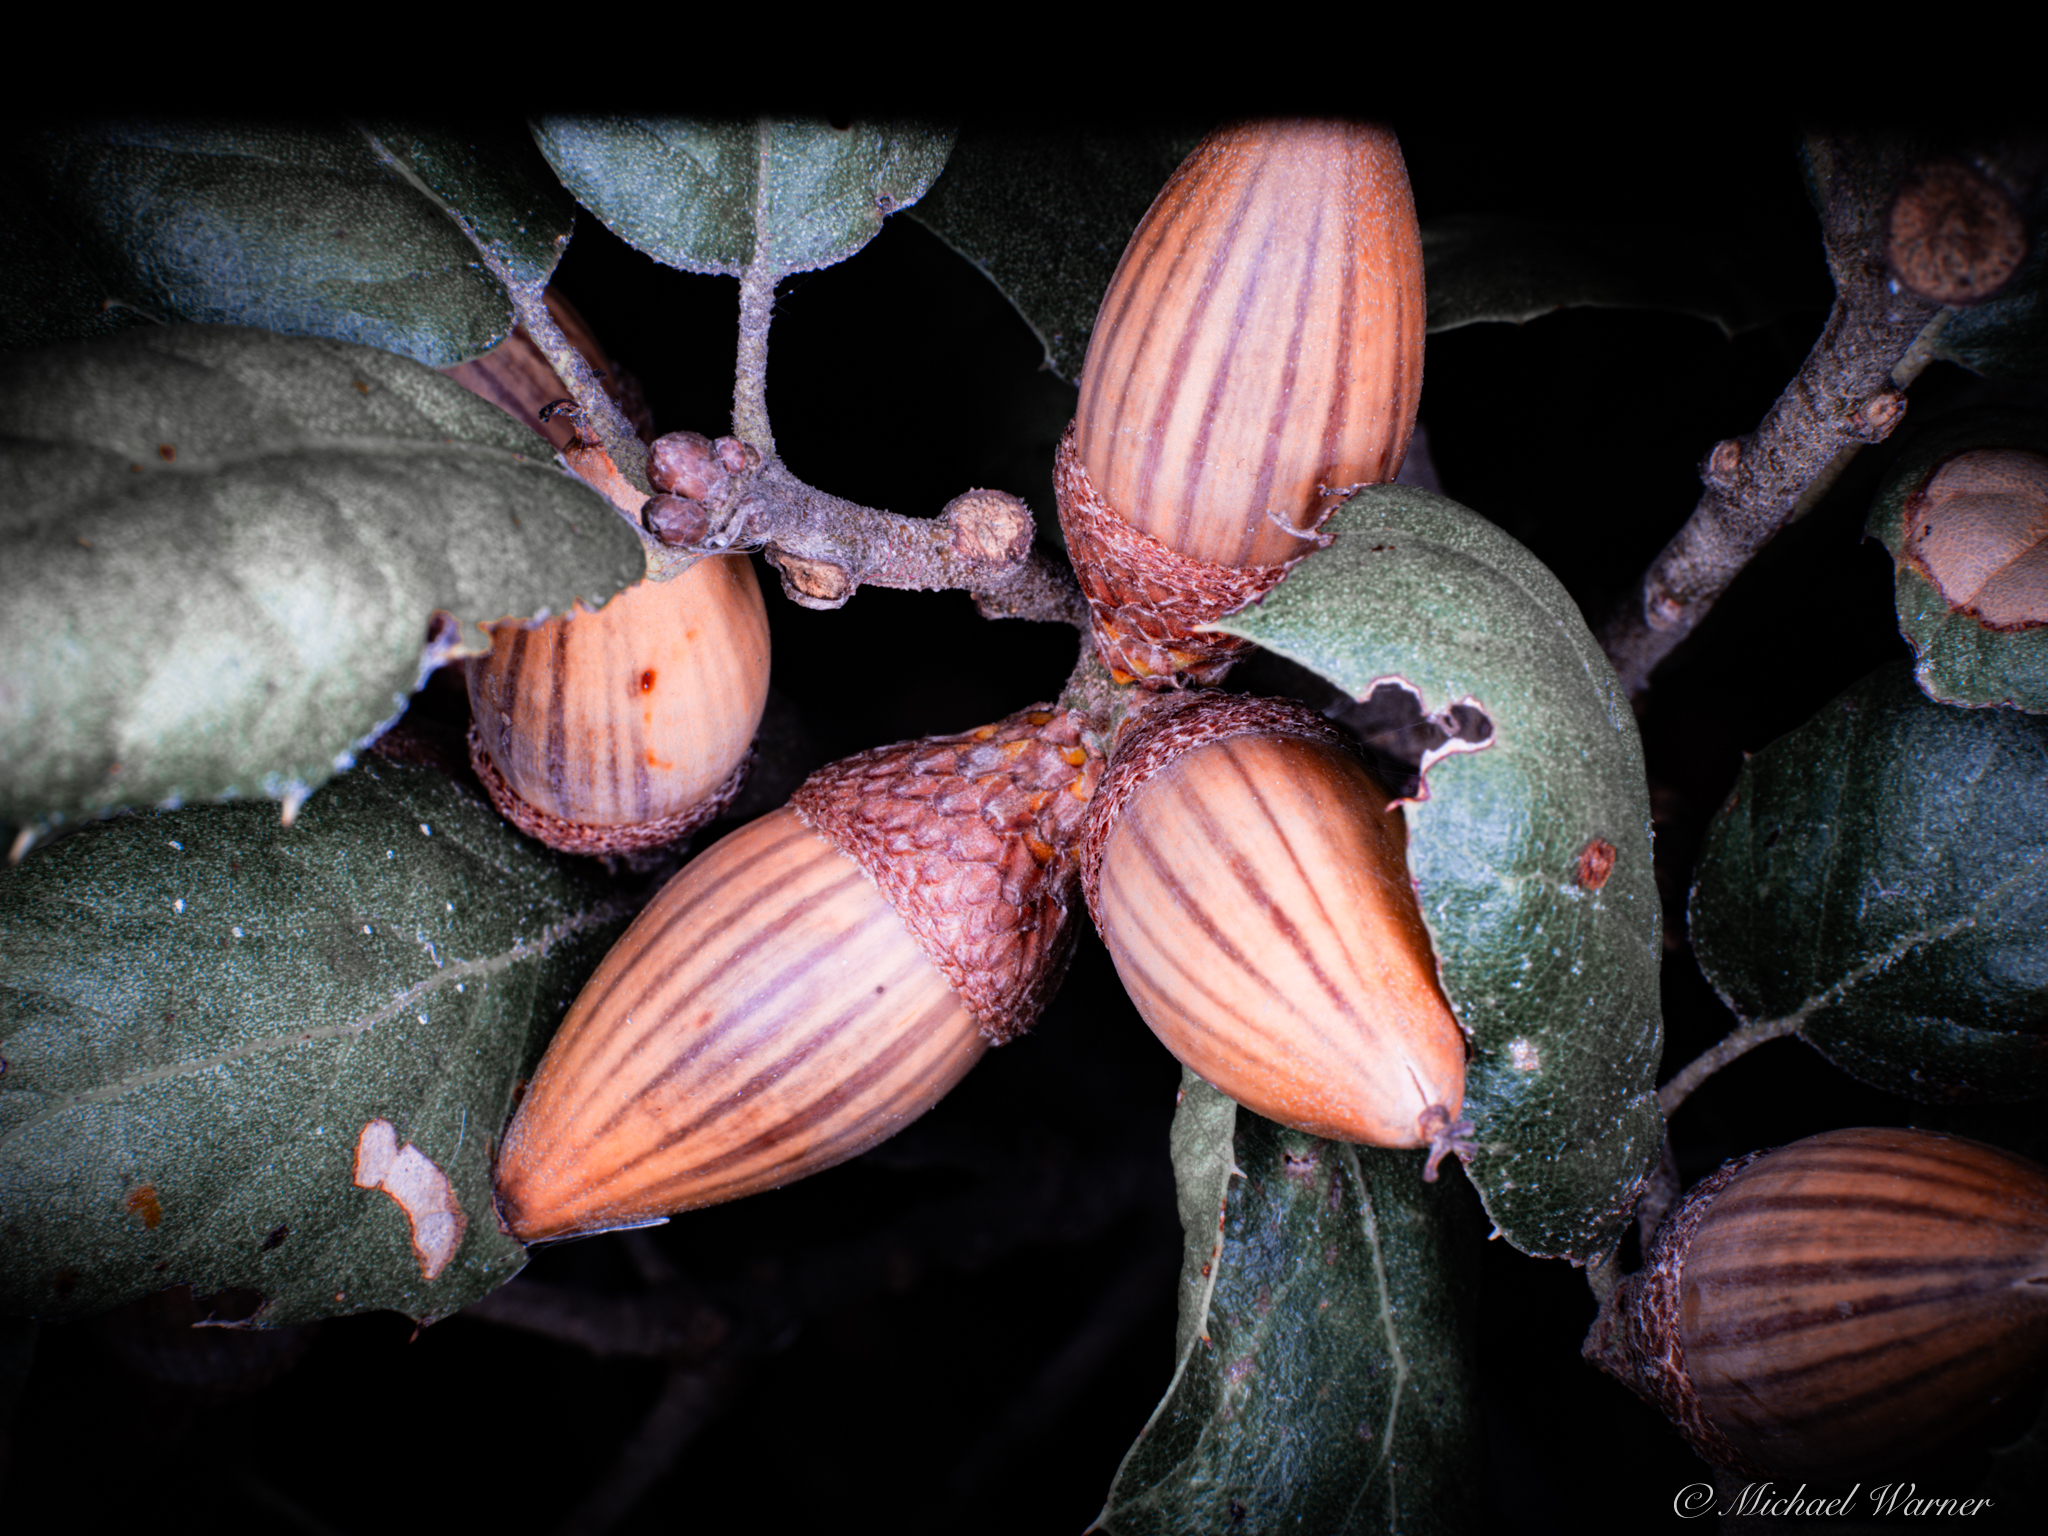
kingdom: Plantae
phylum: Tracheophyta
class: Magnoliopsida
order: Fagales
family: Fagaceae
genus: Quercus
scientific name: Quercus agrifolia
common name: California live oak
